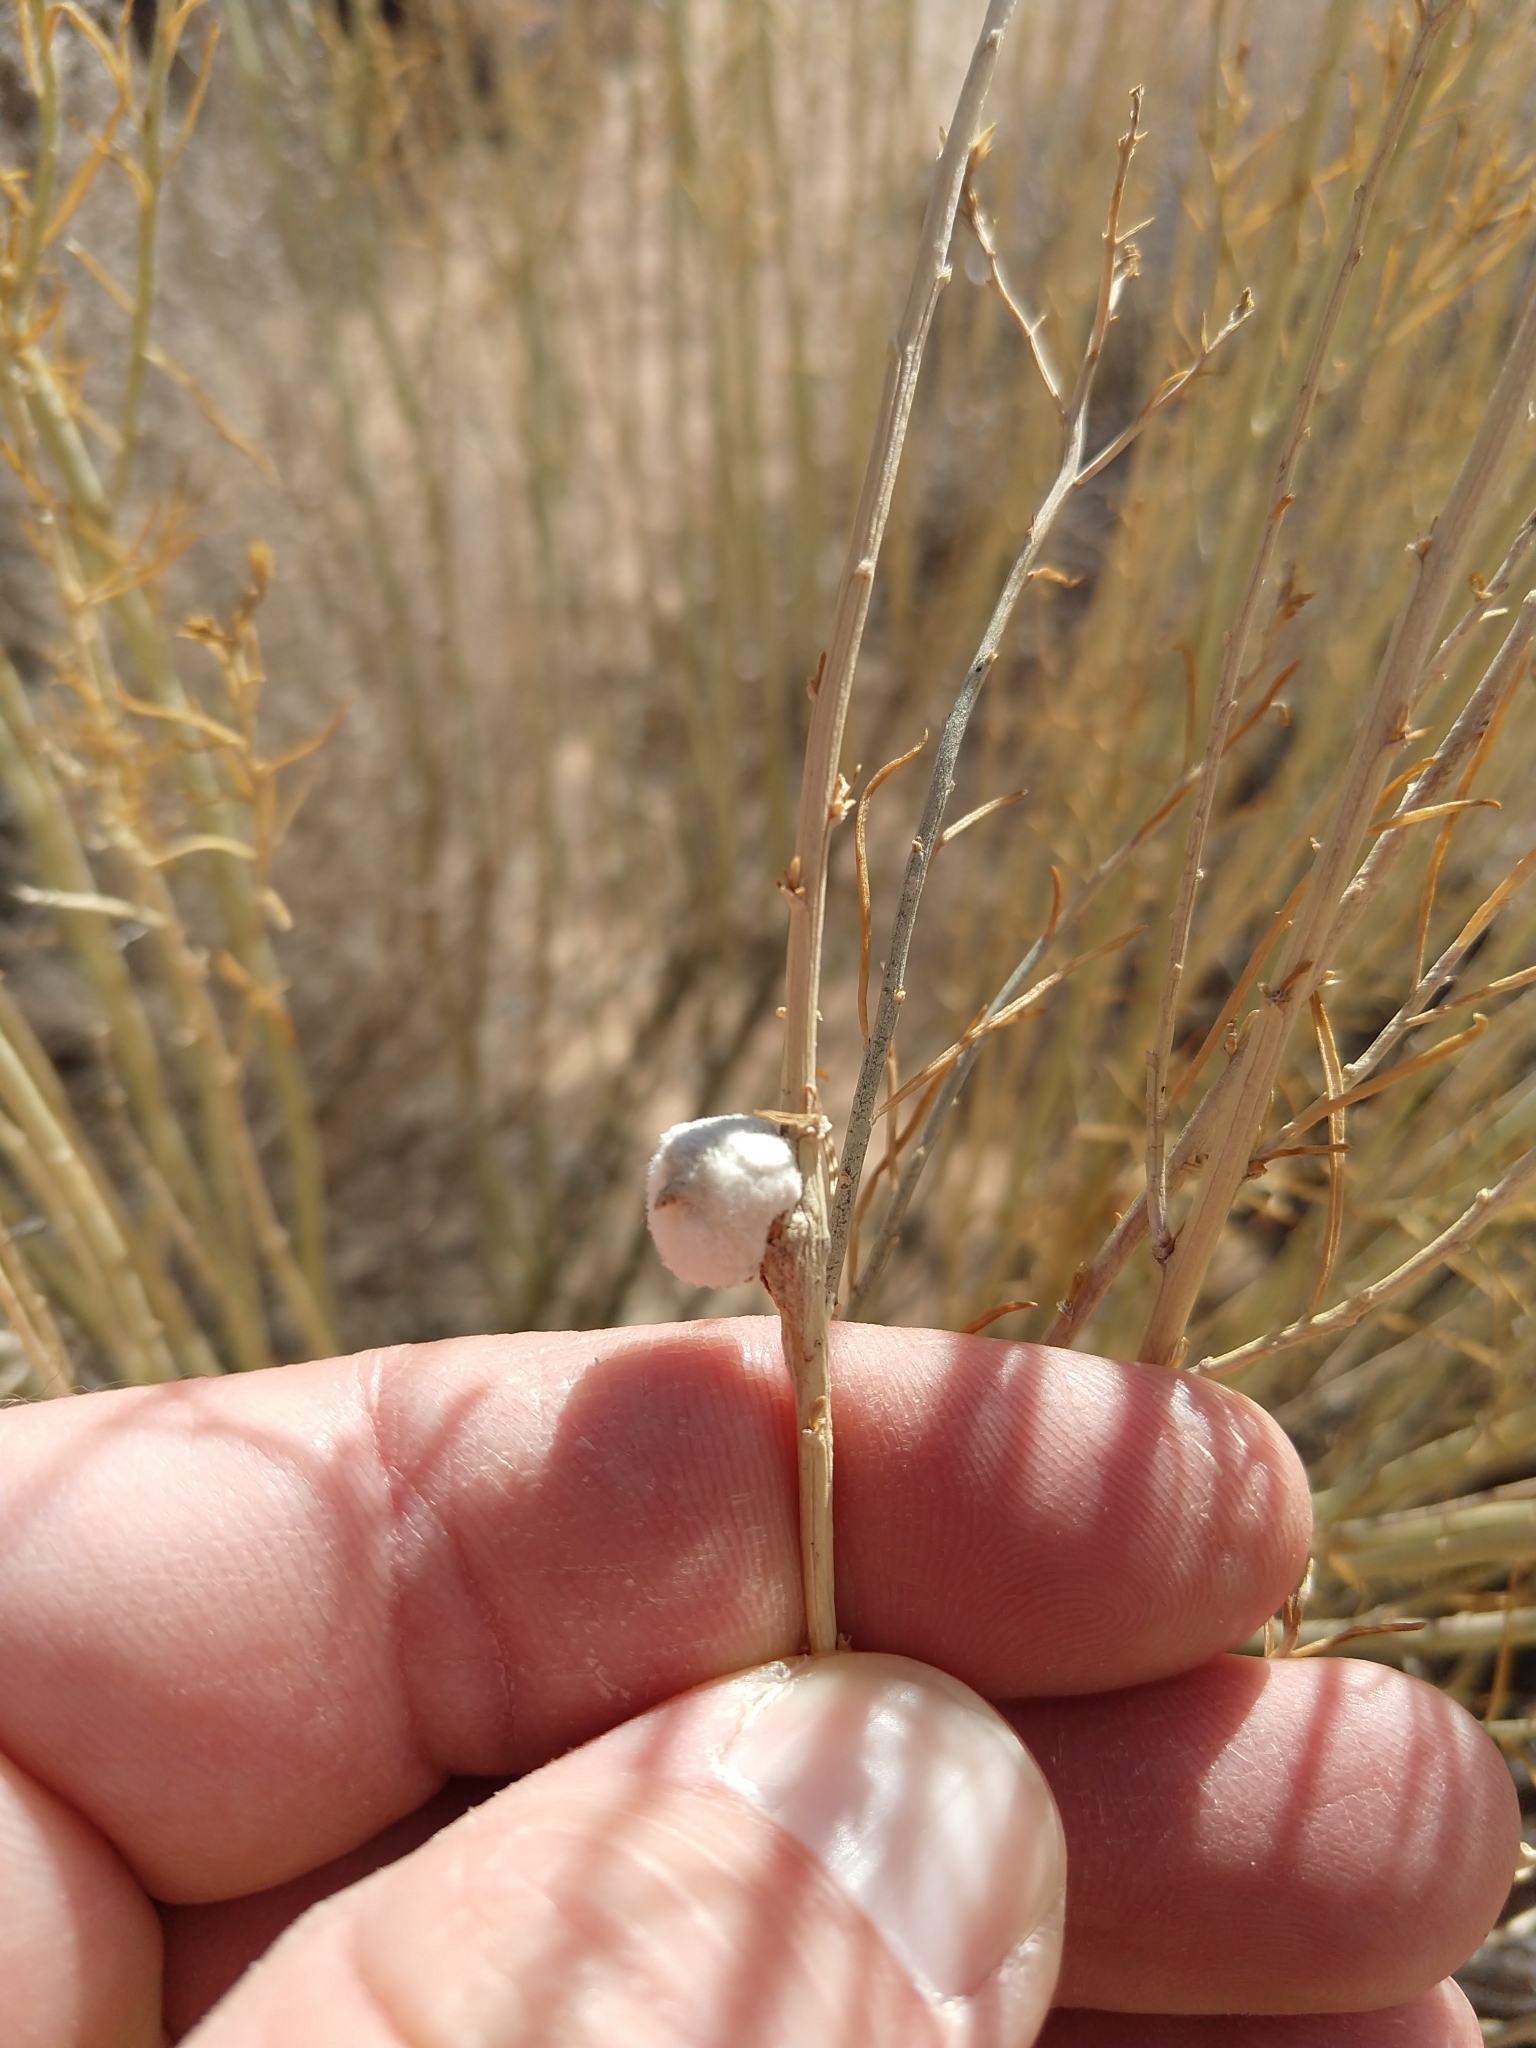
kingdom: Animalia
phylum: Arthropoda
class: Insecta
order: Diptera
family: Tephritidae
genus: Aciurina
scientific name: Aciurina bigeloviae
